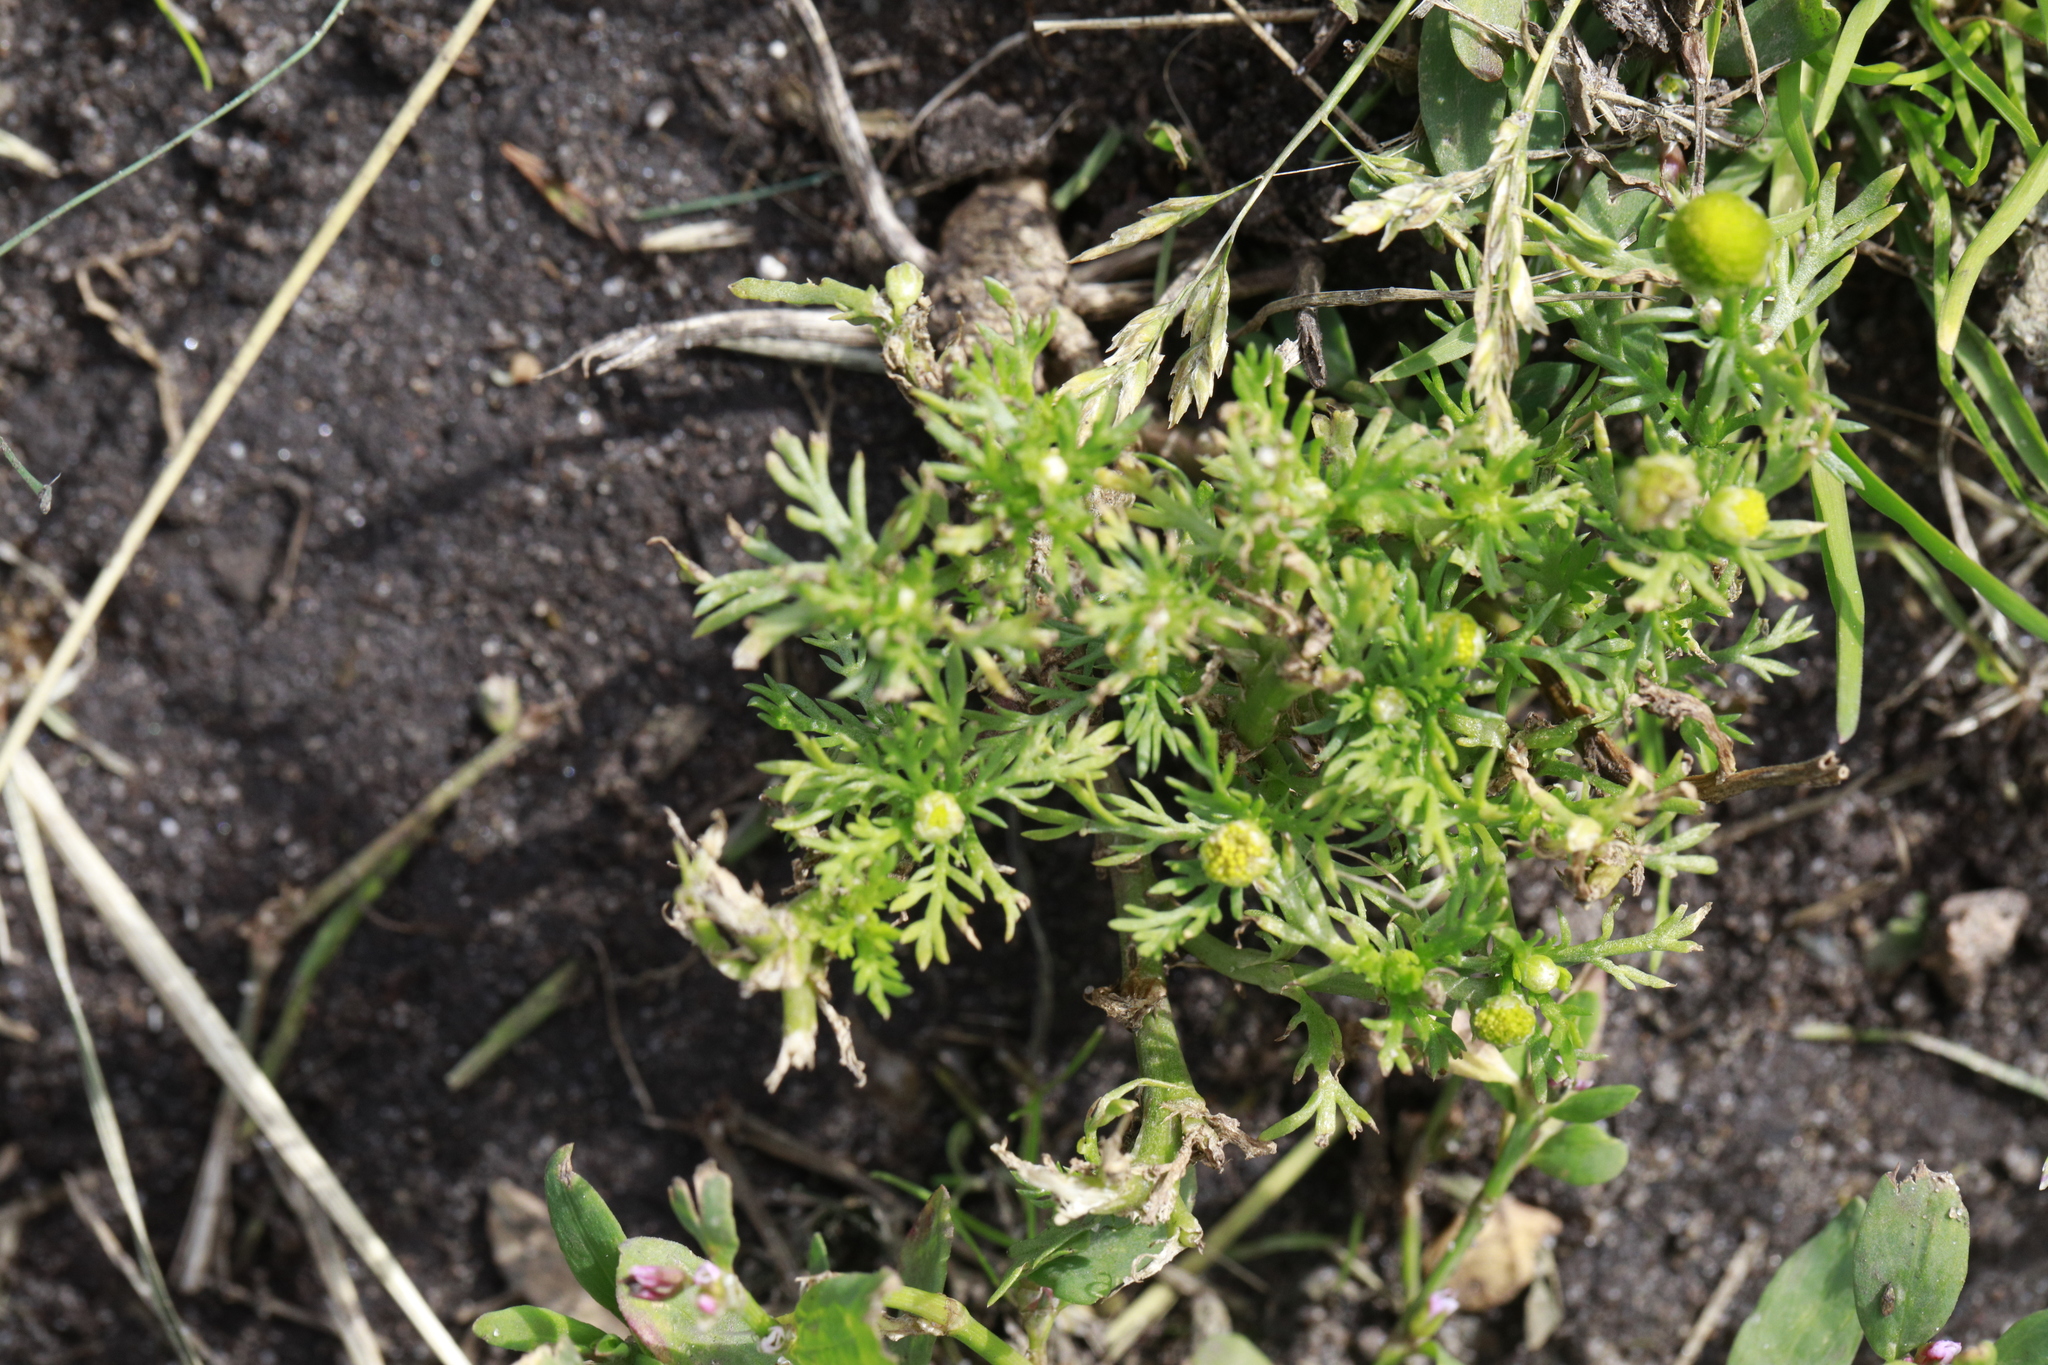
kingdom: Plantae
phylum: Tracheophyta
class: Magnoliopsida
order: Asterales
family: Asteraceae
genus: Matricaria
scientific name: Matricaria discoidea
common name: Disc mayweed
